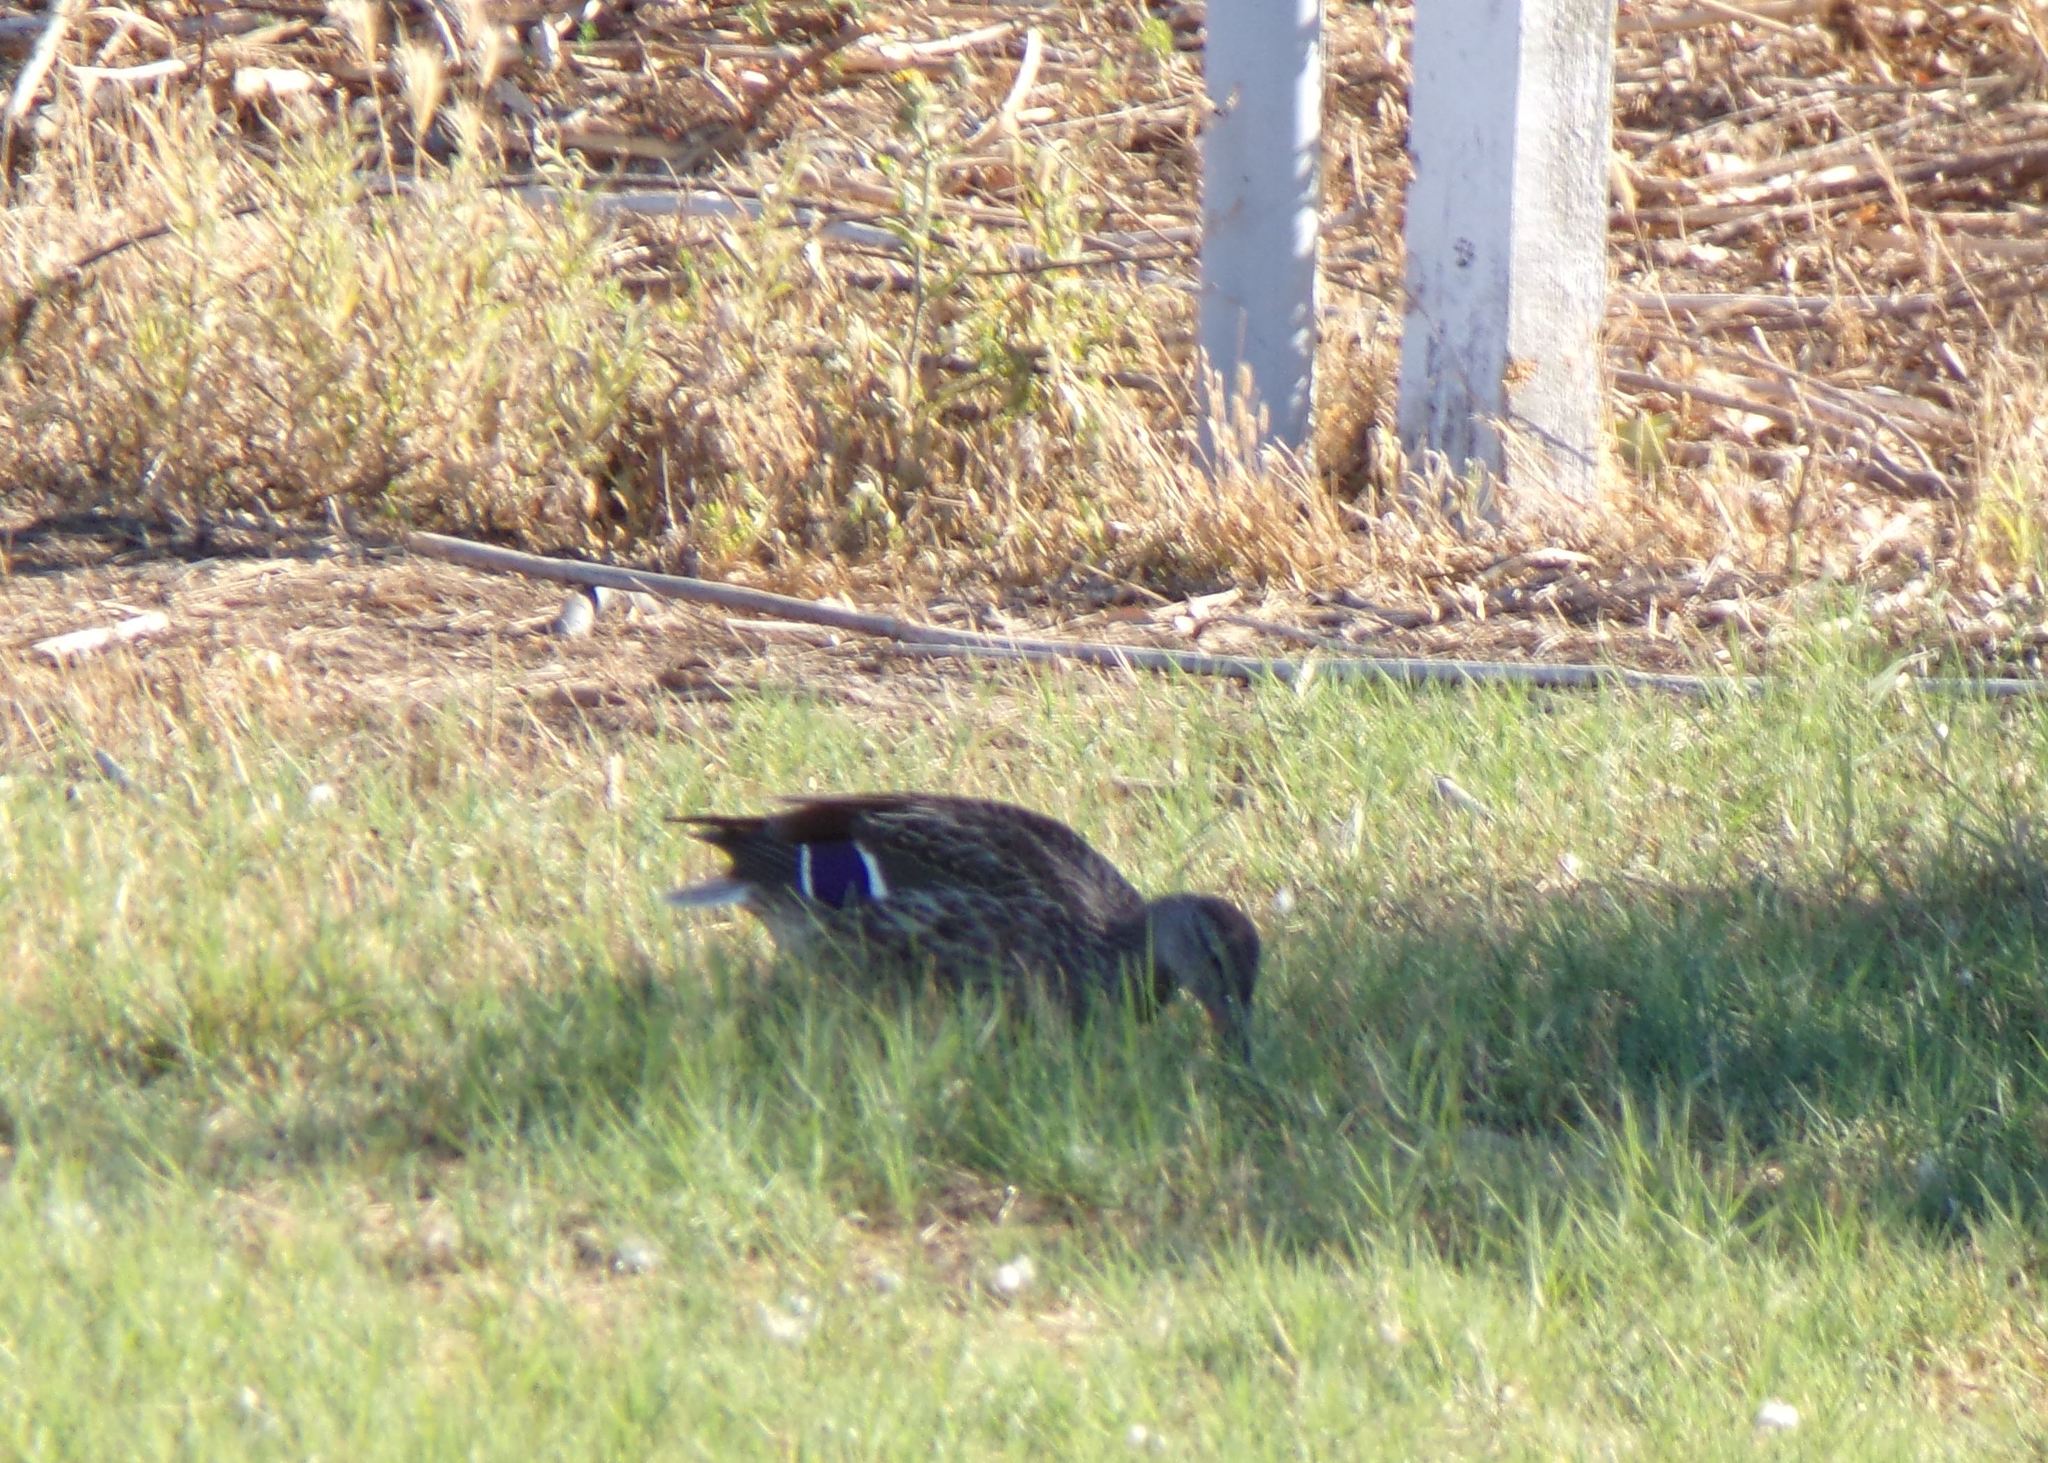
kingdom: Animalia
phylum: Chordata
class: Aves
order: Anseriformes
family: Anatidae
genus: Anas
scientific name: Anas platyrhynchos
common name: Mallard
